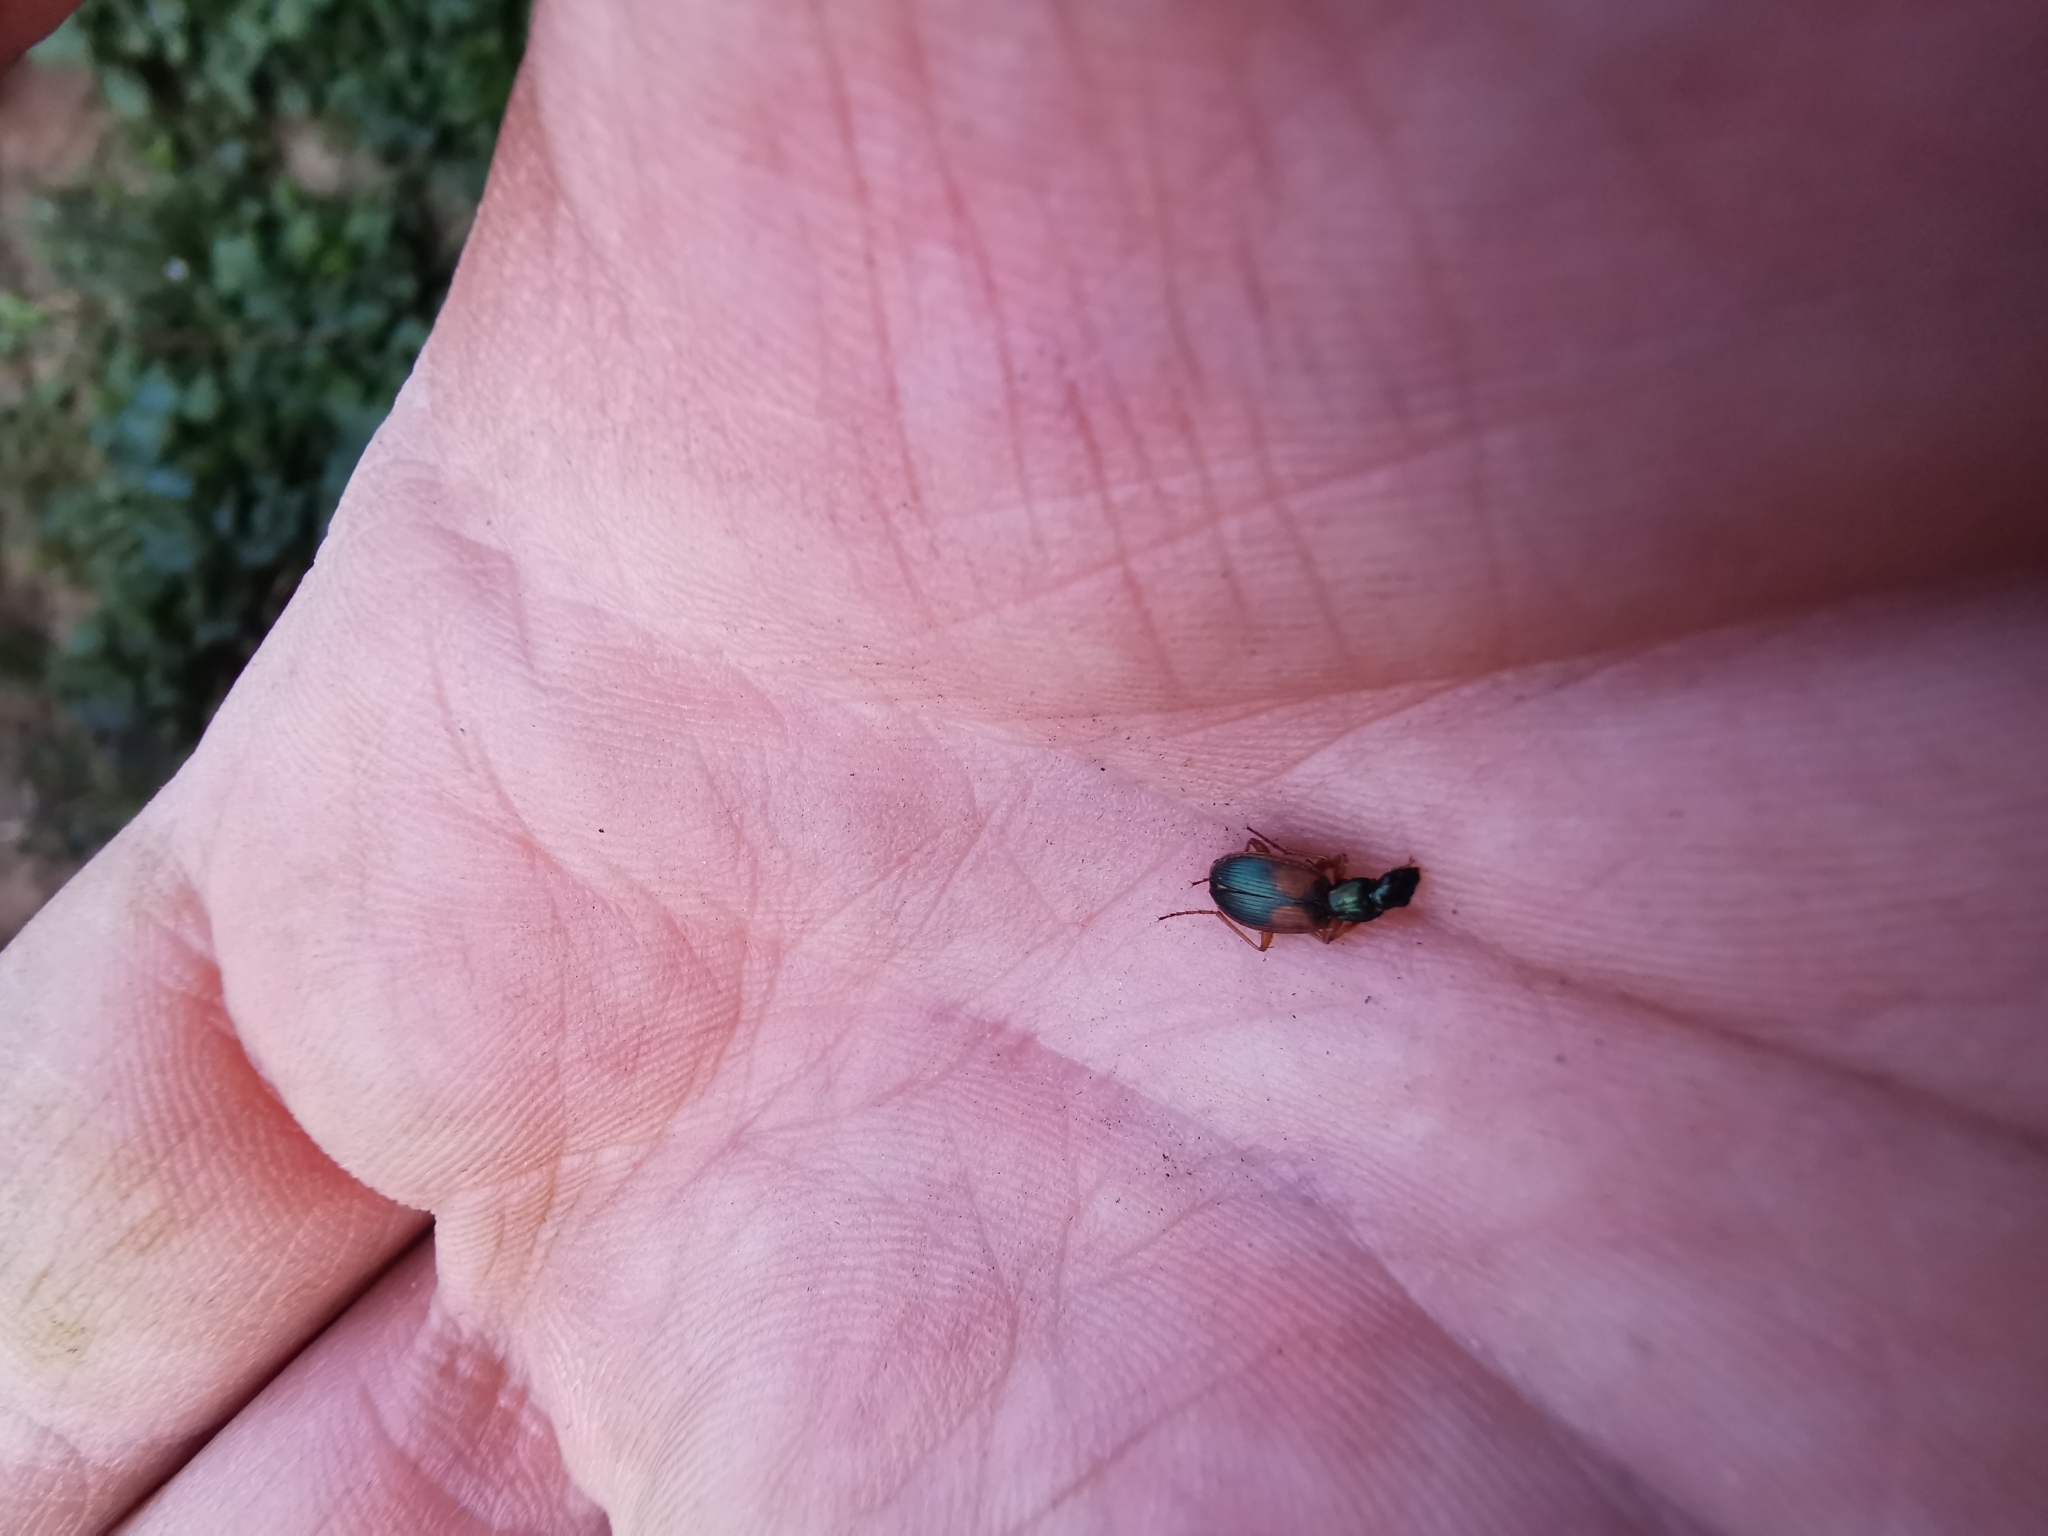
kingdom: Animalia
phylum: Arthropoda
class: Insecta
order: Coleoptera
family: Carabidae
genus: Anchomenus
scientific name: Anchomenus dorsalis
